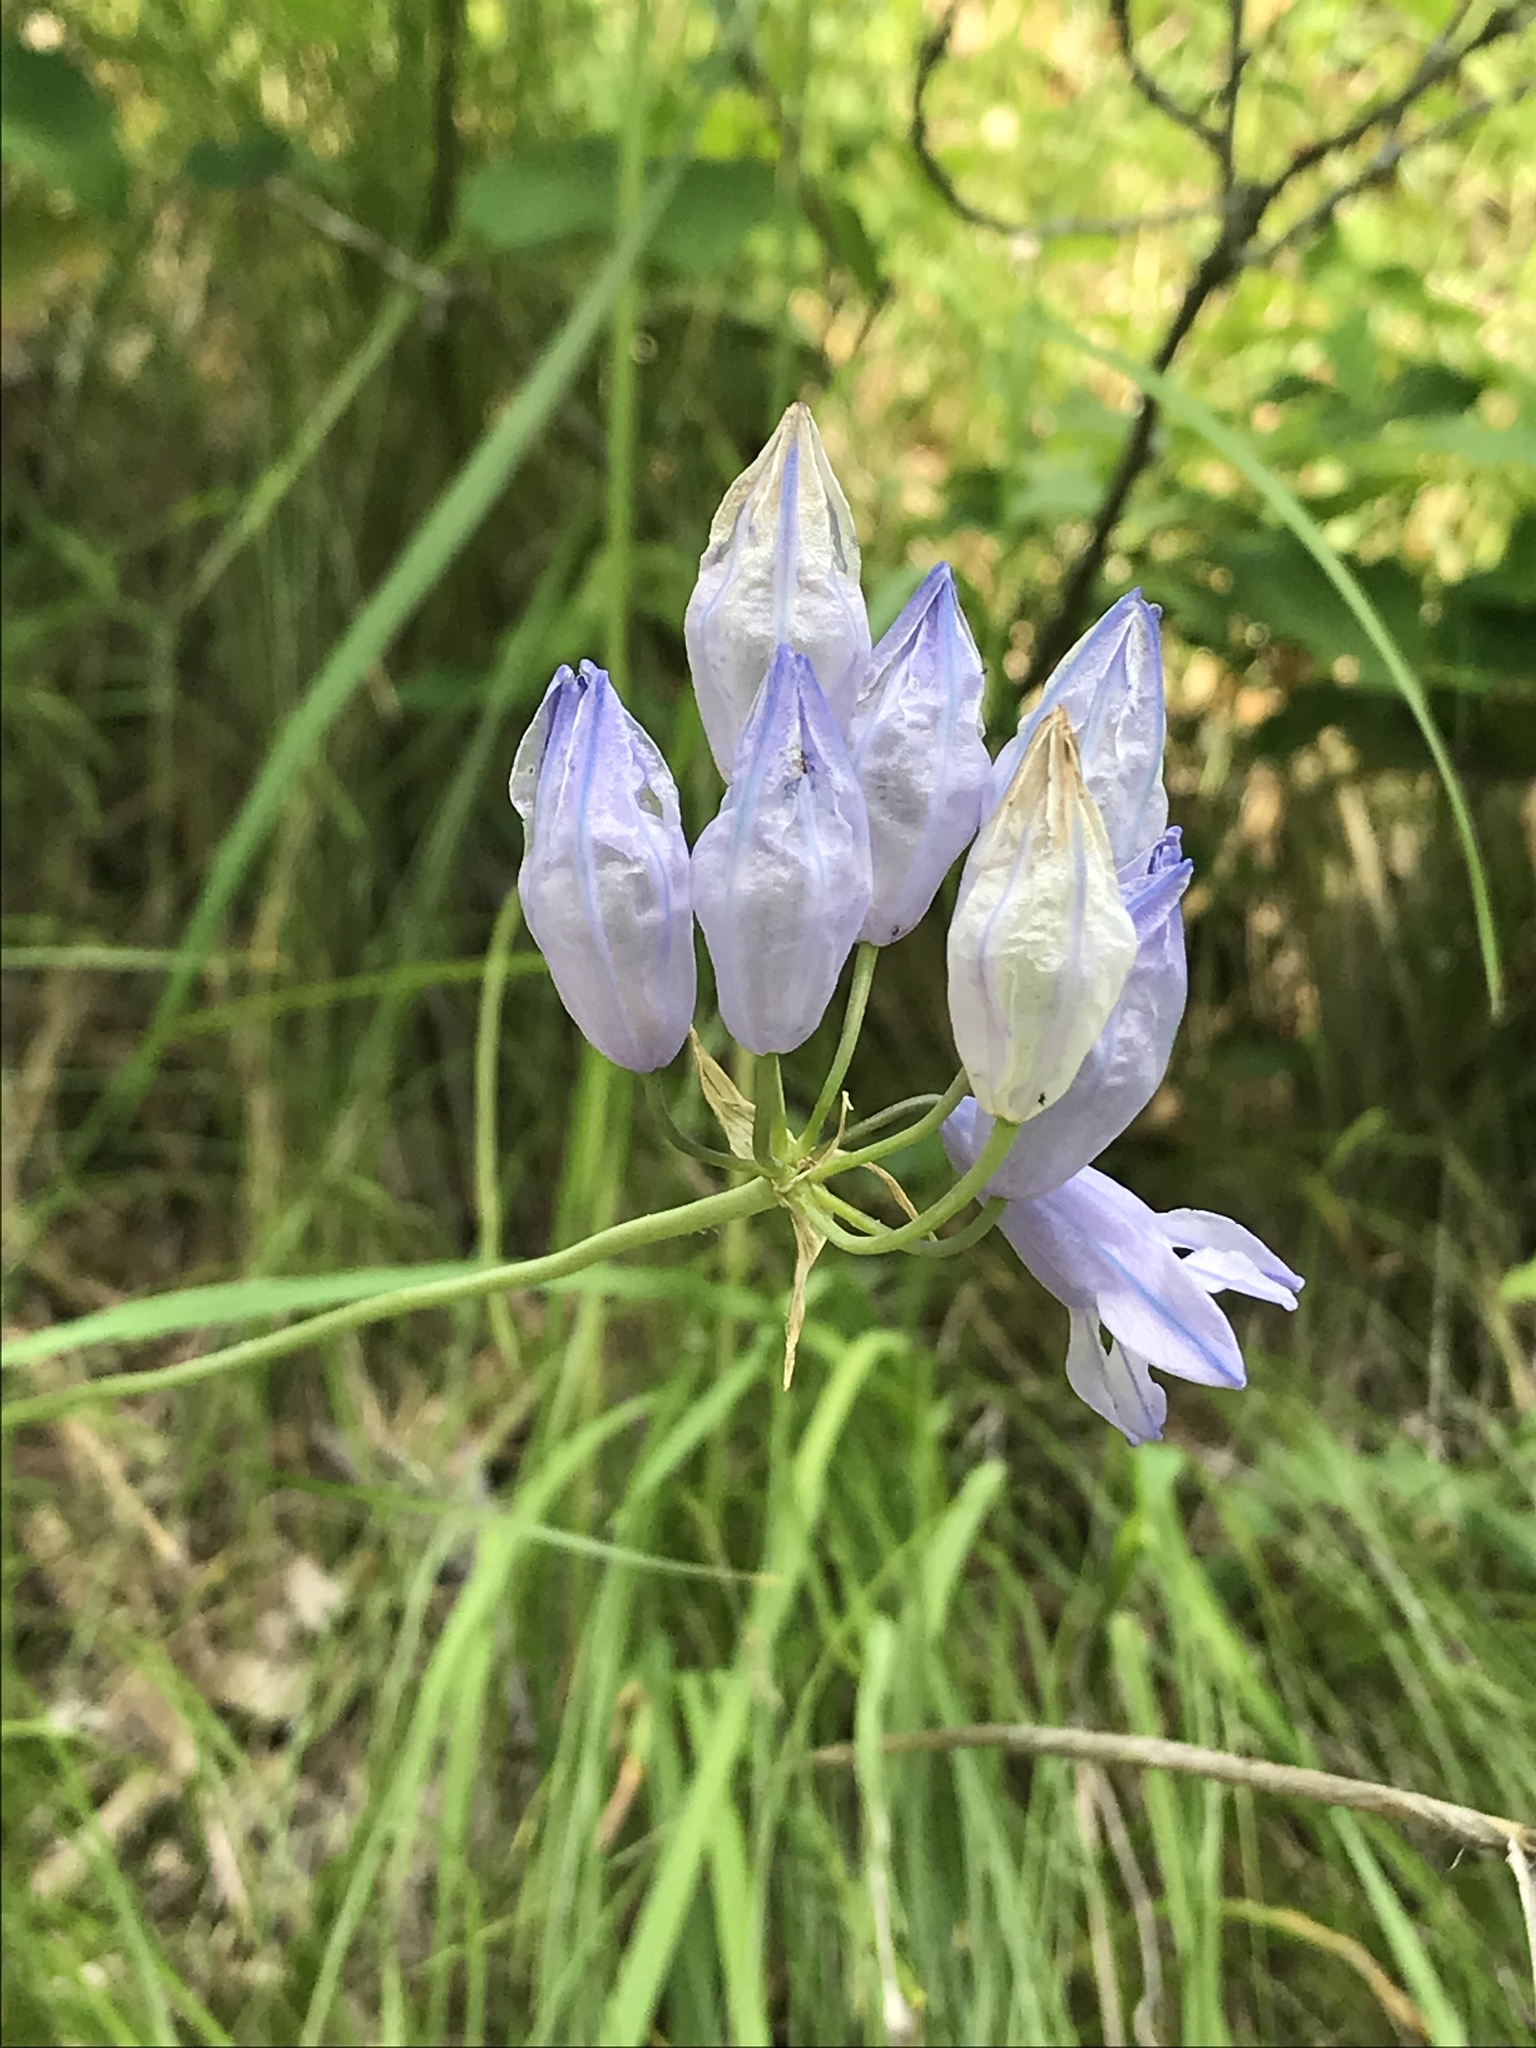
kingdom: Plantae
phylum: Tracheophyta
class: Liliopsida
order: Asparagales
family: Asparagaceae
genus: Triteleia
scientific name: Triteleia grandiflora
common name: Wild hyacinth
